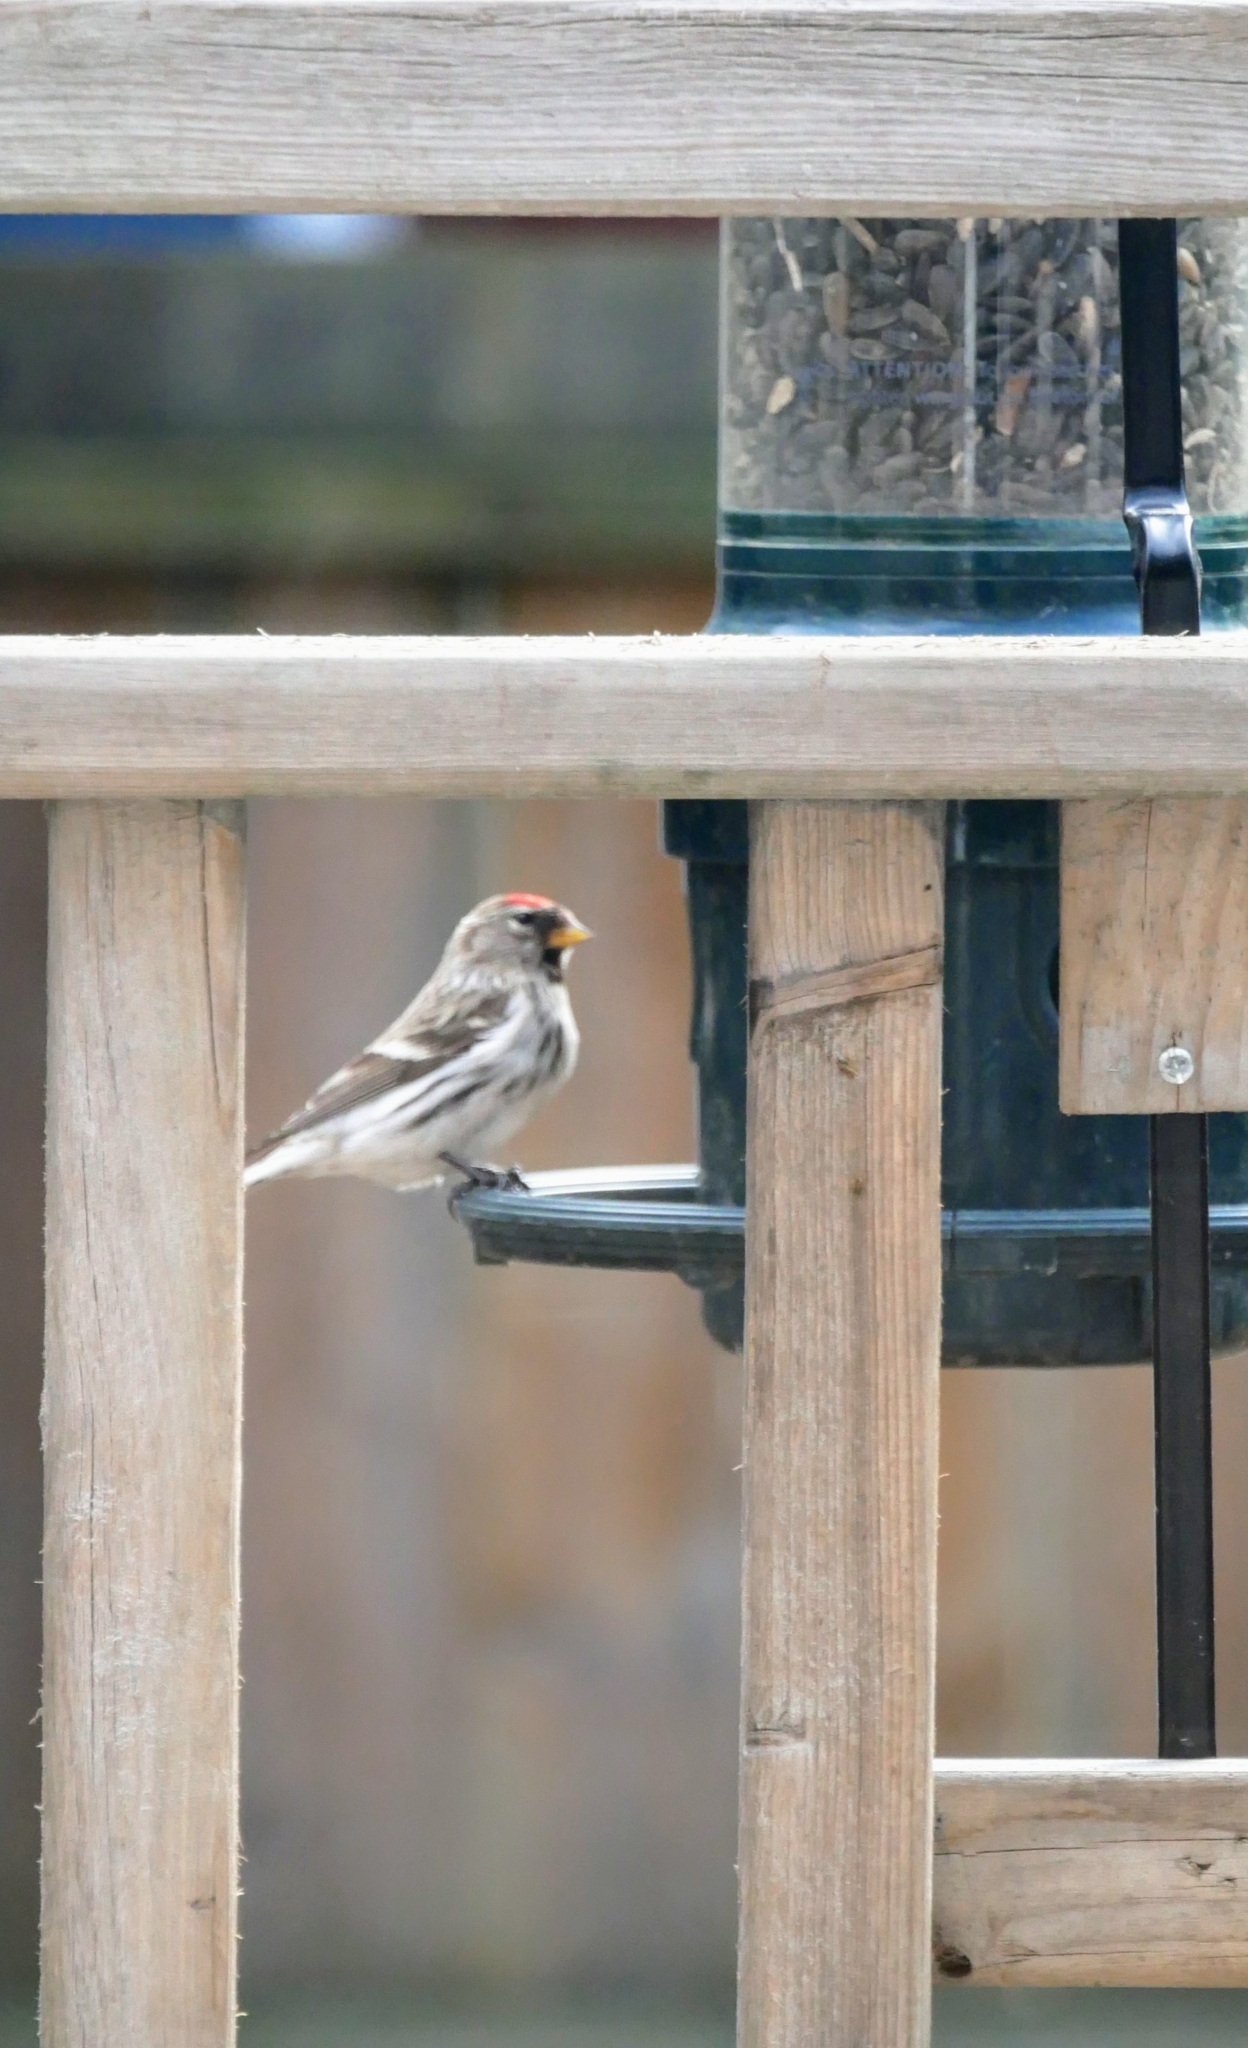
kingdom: Animalia
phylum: Chordata
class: Aves
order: Passeriformes
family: Fringillidae
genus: Acanthis
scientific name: Acanthis flammea
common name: Common redpoll
